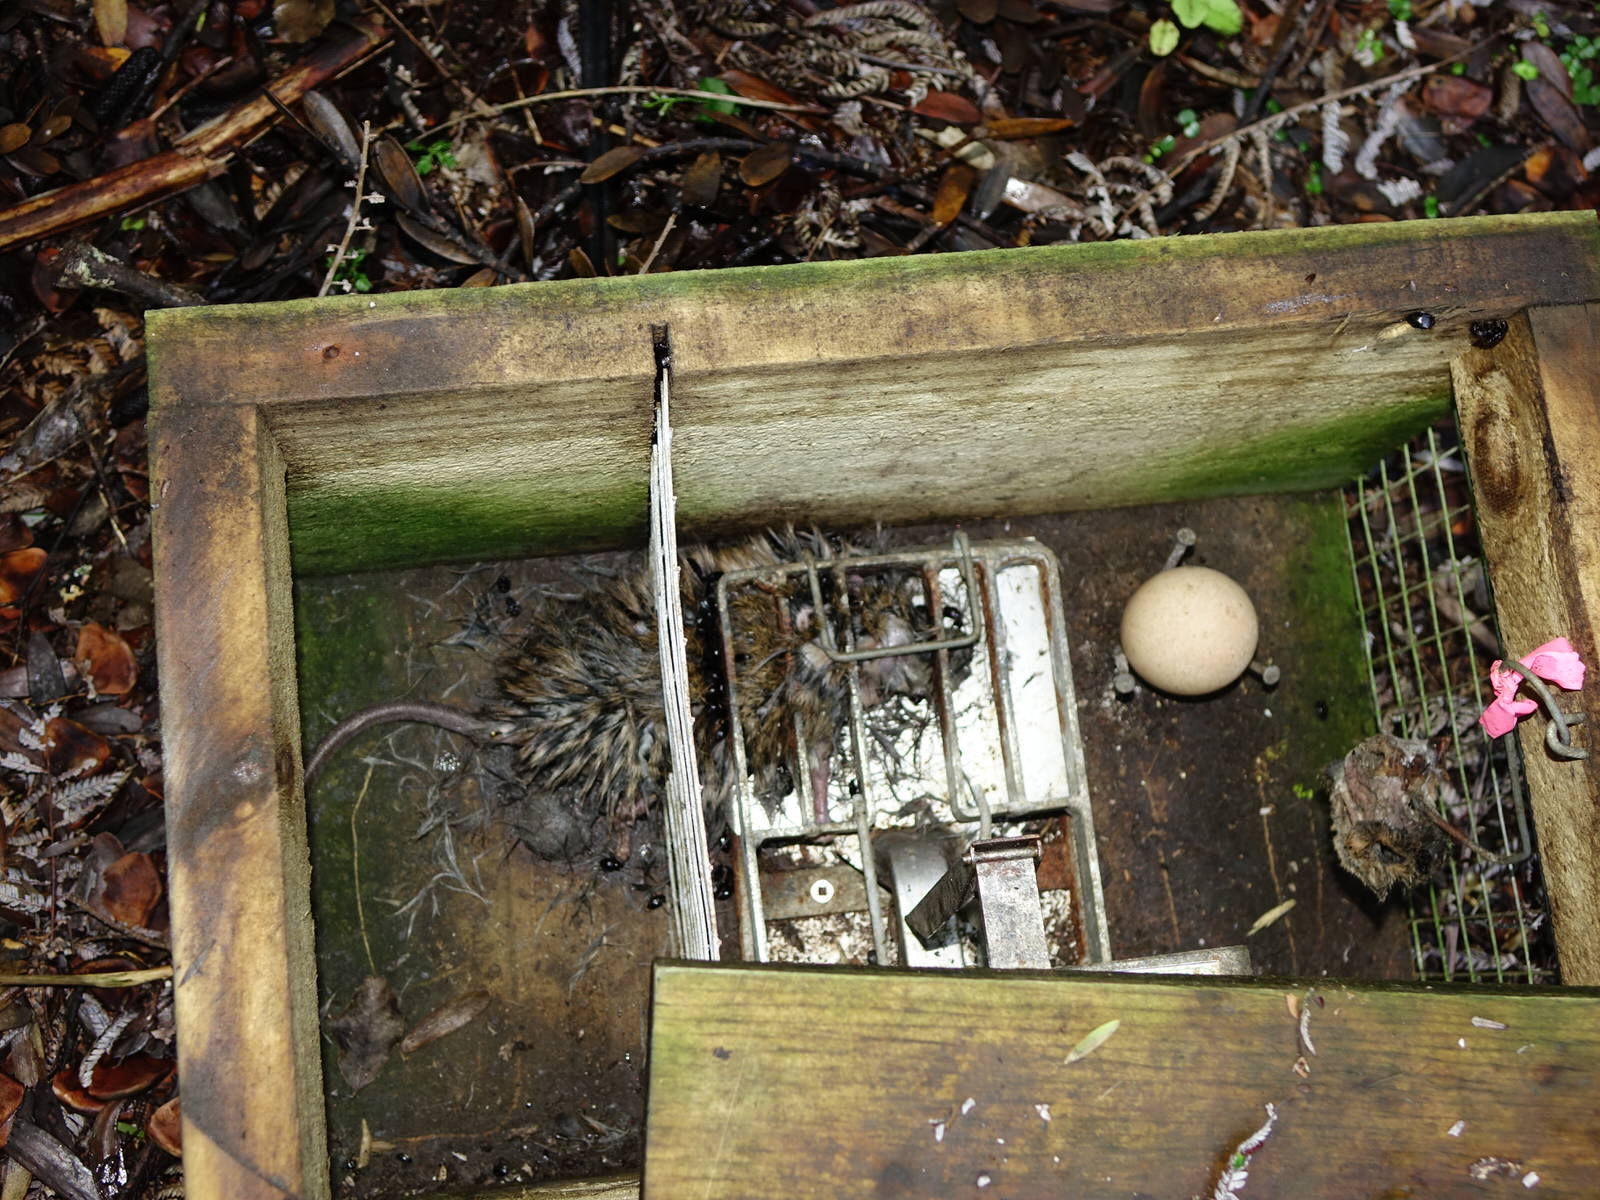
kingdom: Animalia
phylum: Chordata
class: Mammalia
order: Rodentia
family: Muridae
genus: Rattus
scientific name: Rattus
